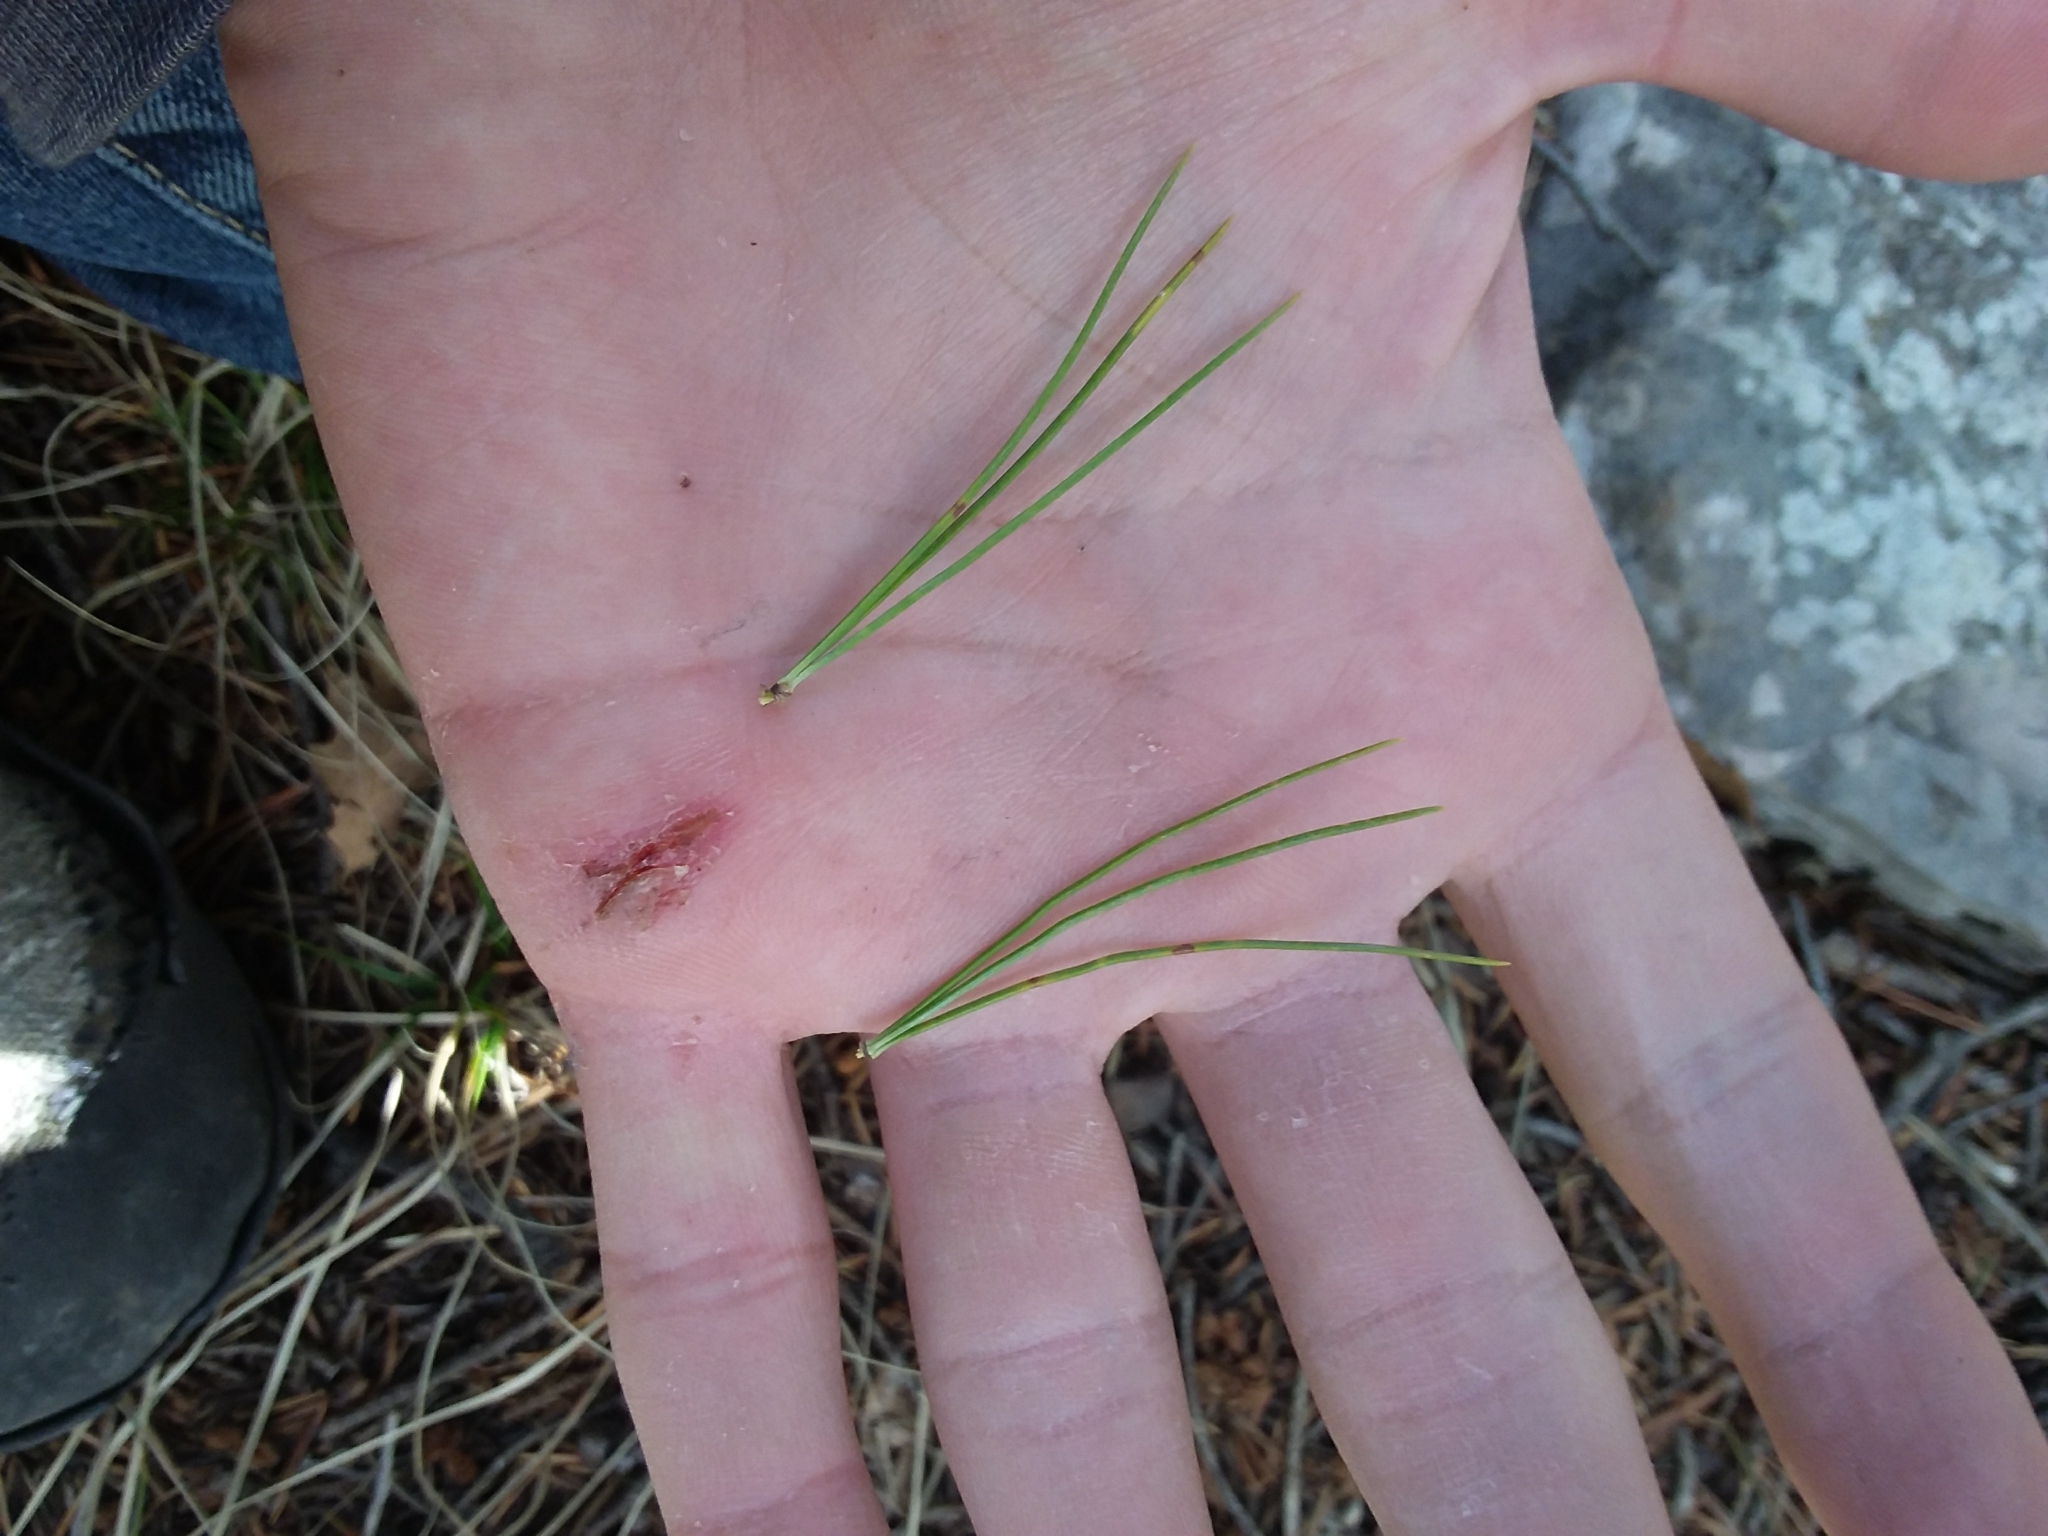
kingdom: Plantae
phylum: Tracheophyta
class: Pinopsida
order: Pinales
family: Pinaceae
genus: Pinus
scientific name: Pinus ponderosa
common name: Western yellow-pine
